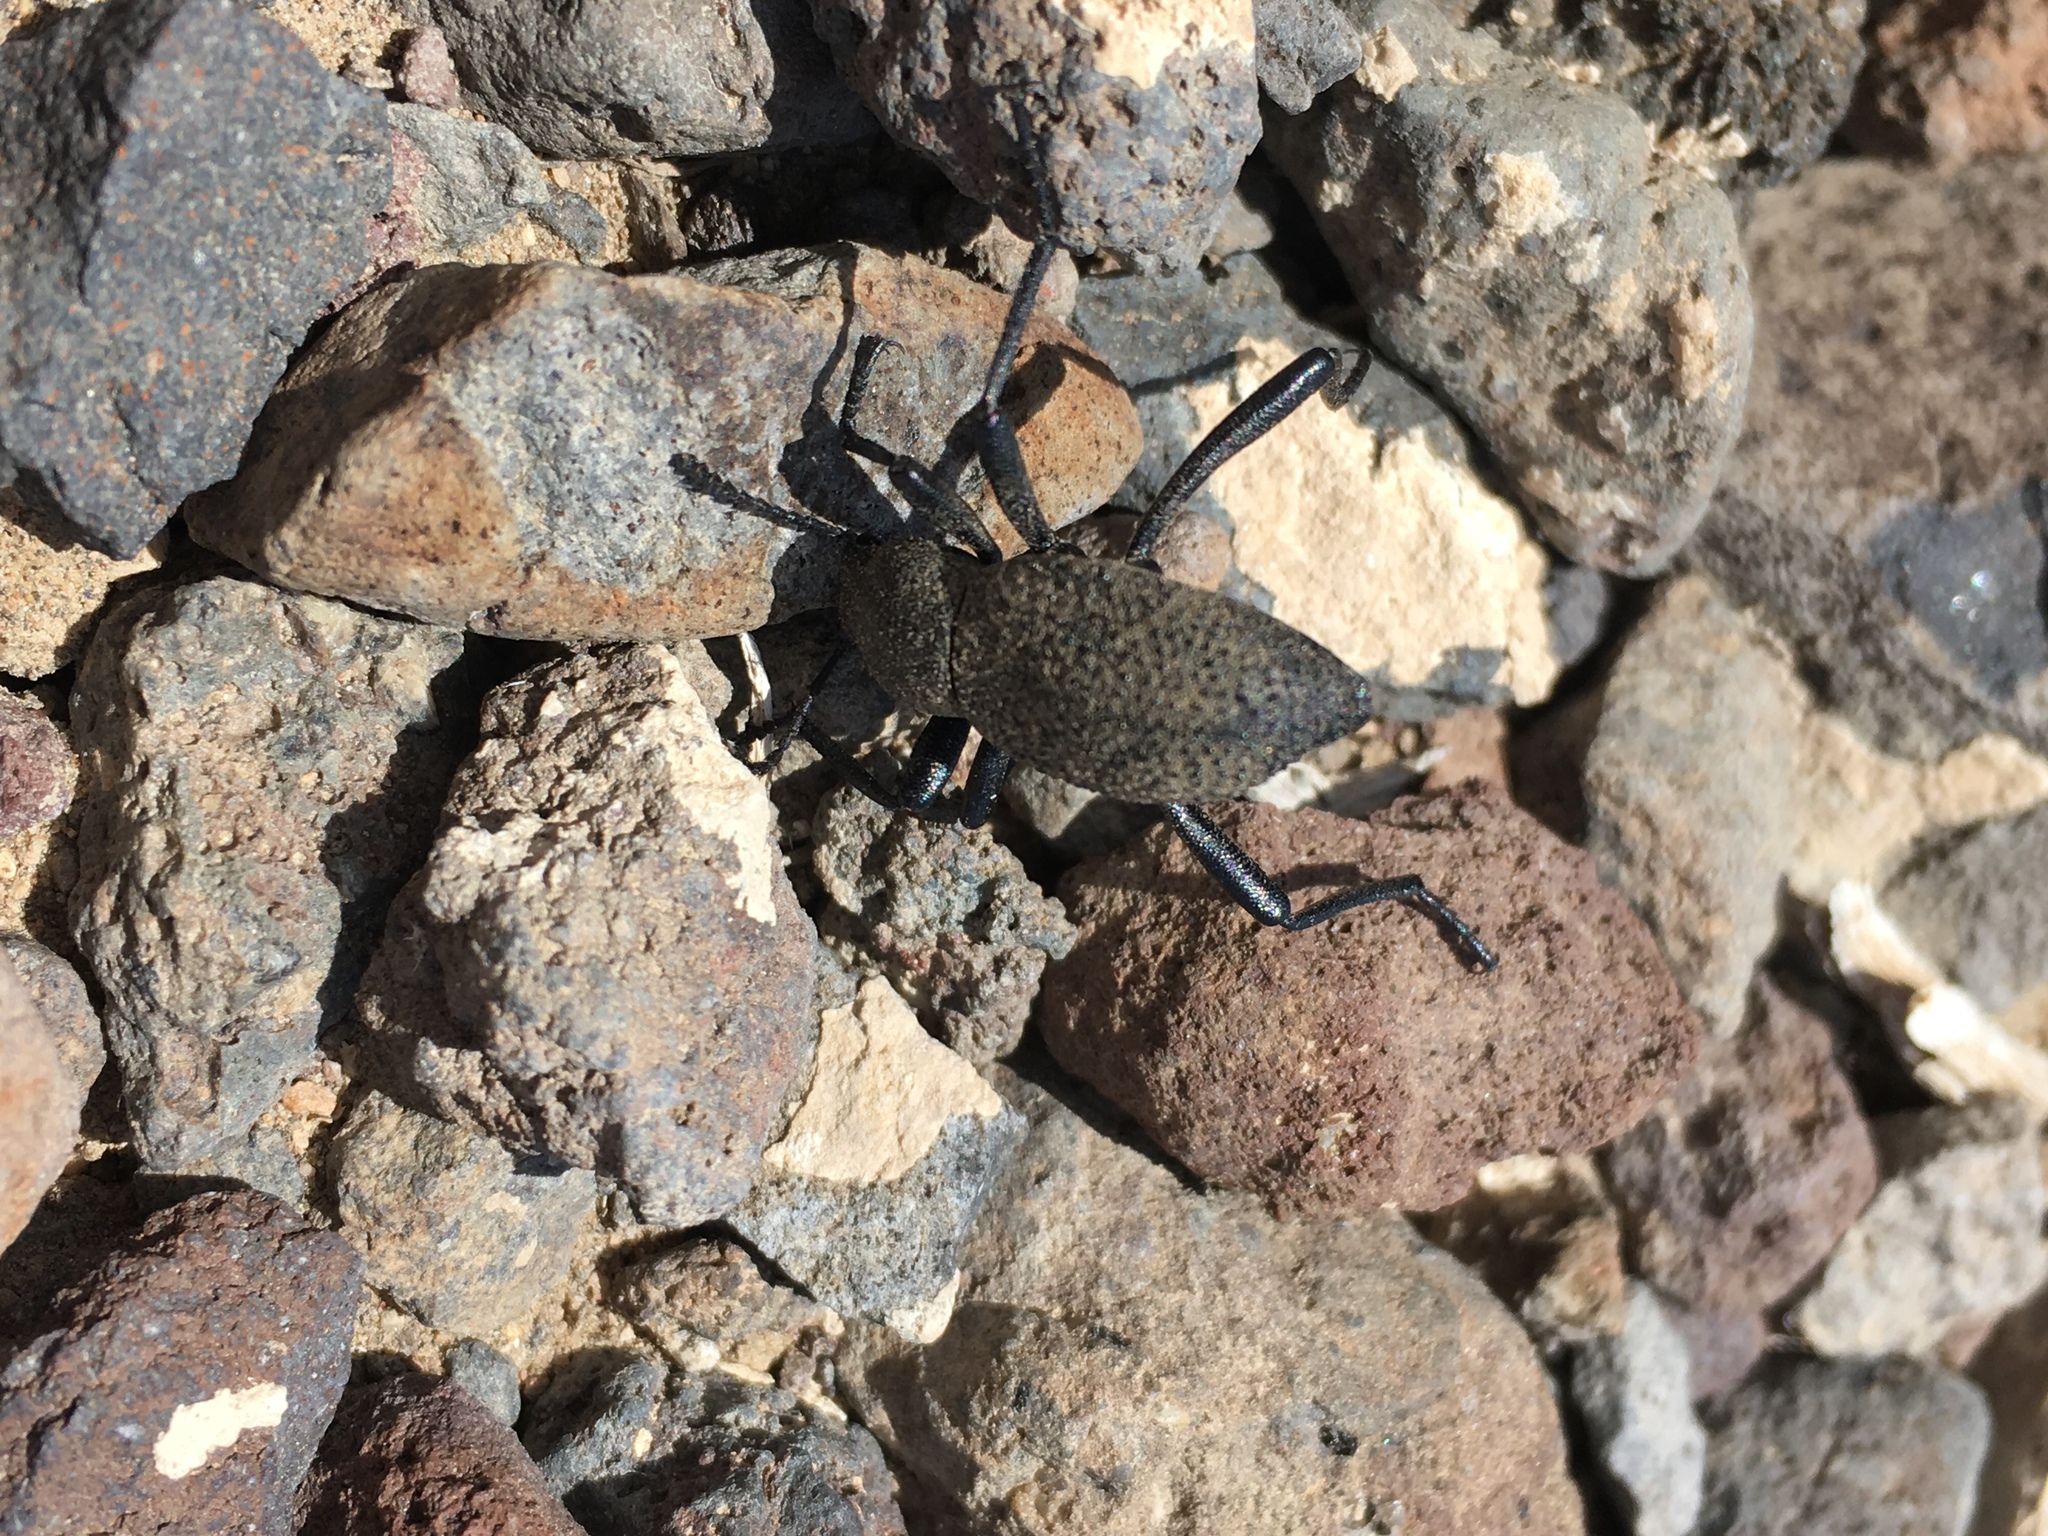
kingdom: Animalia
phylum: Arthropoda
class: Insecta
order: Coleoptera
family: Tenebrionidae
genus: Eleodes
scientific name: Eleodes granosa
